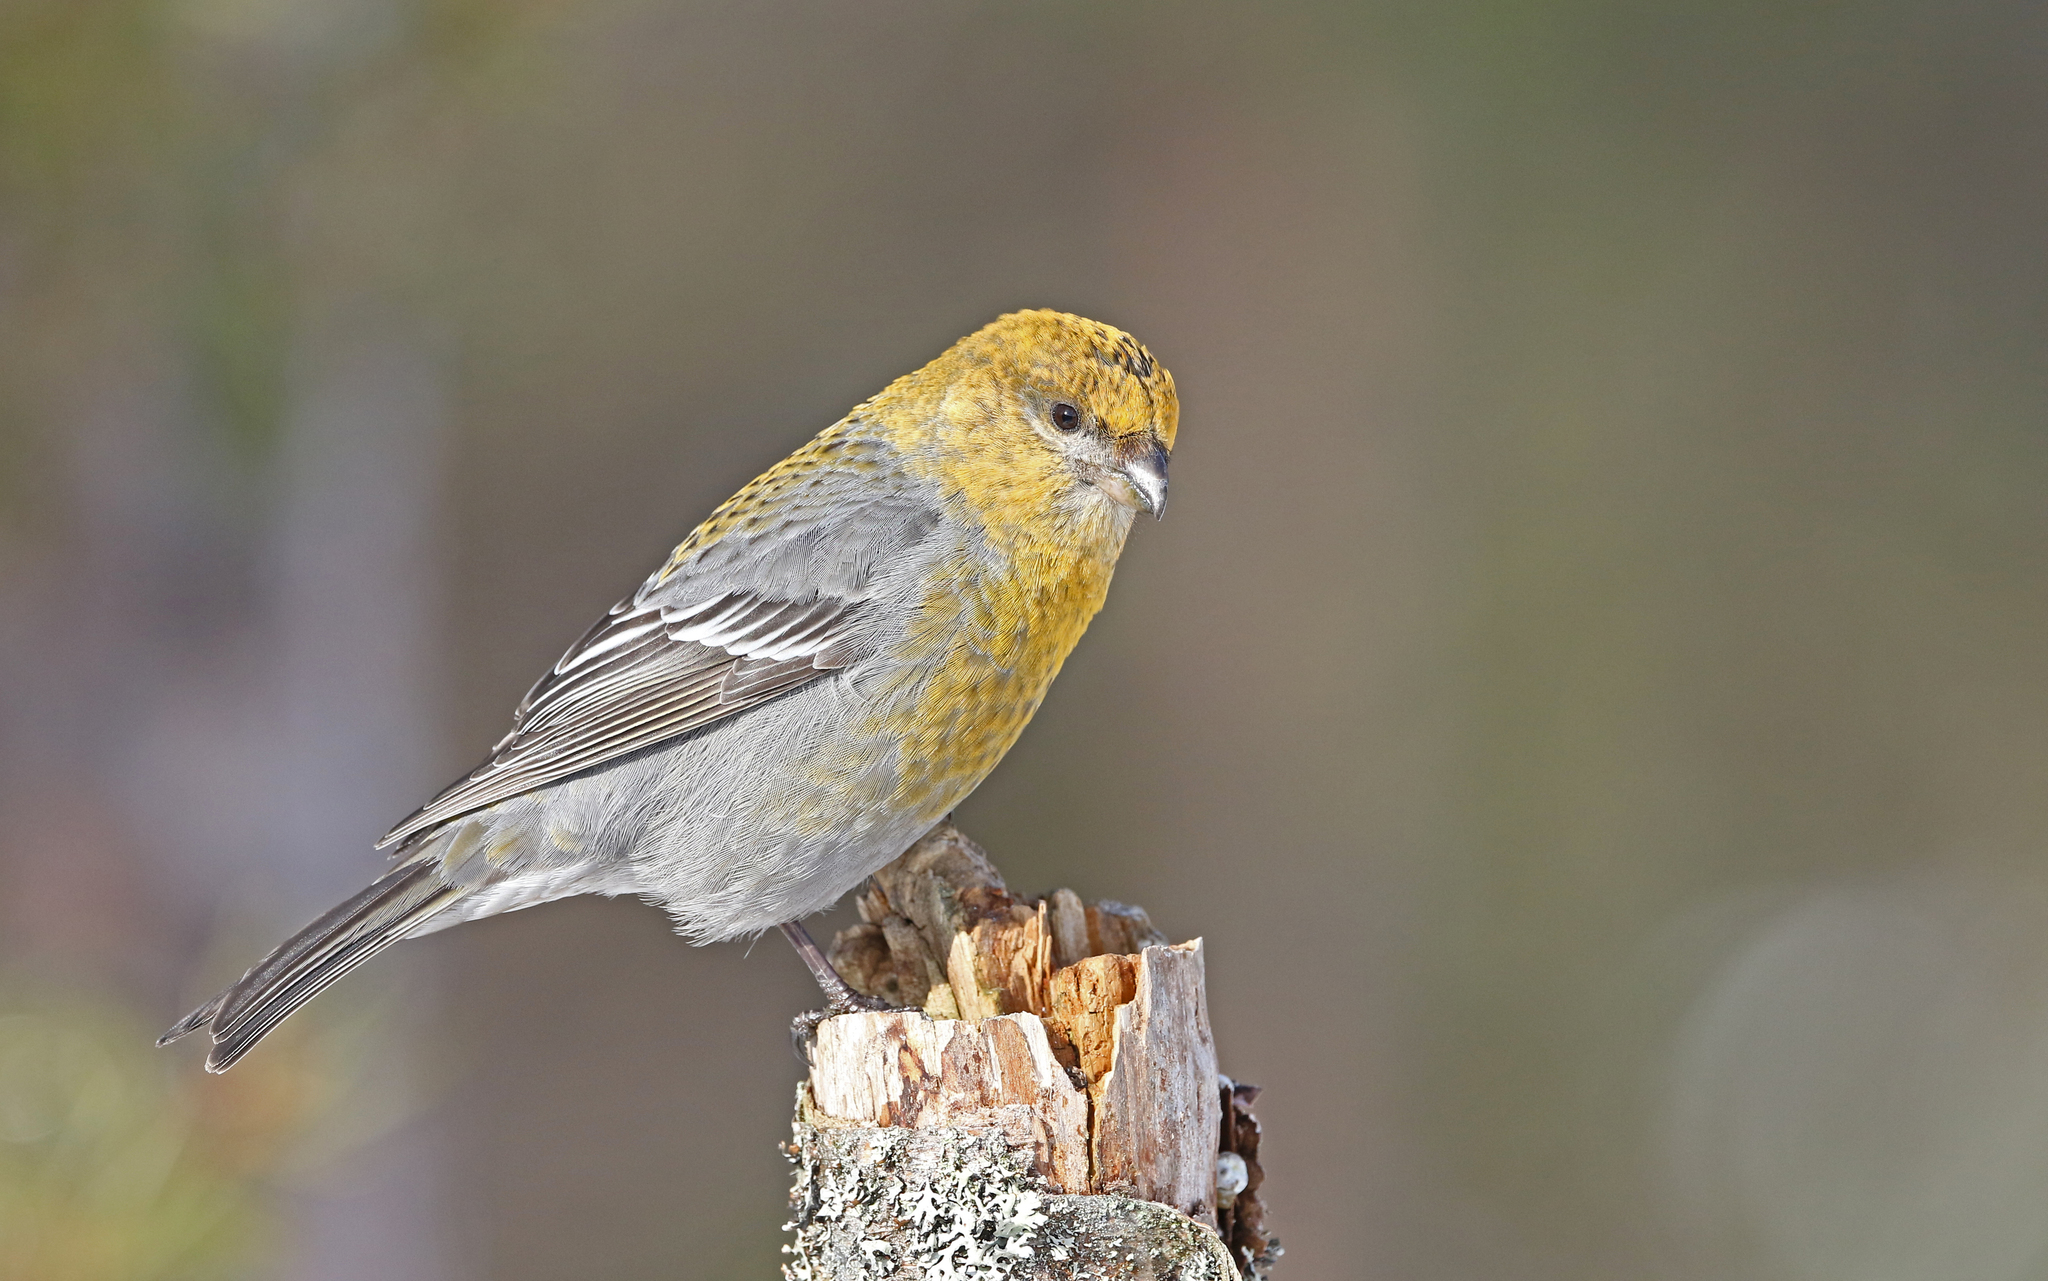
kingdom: Animalia
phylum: Chordata
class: Aves
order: Passeriformes
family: Fringillidae
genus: Pinicola
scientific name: Pinicola enucleator
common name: Pine grosbeak
